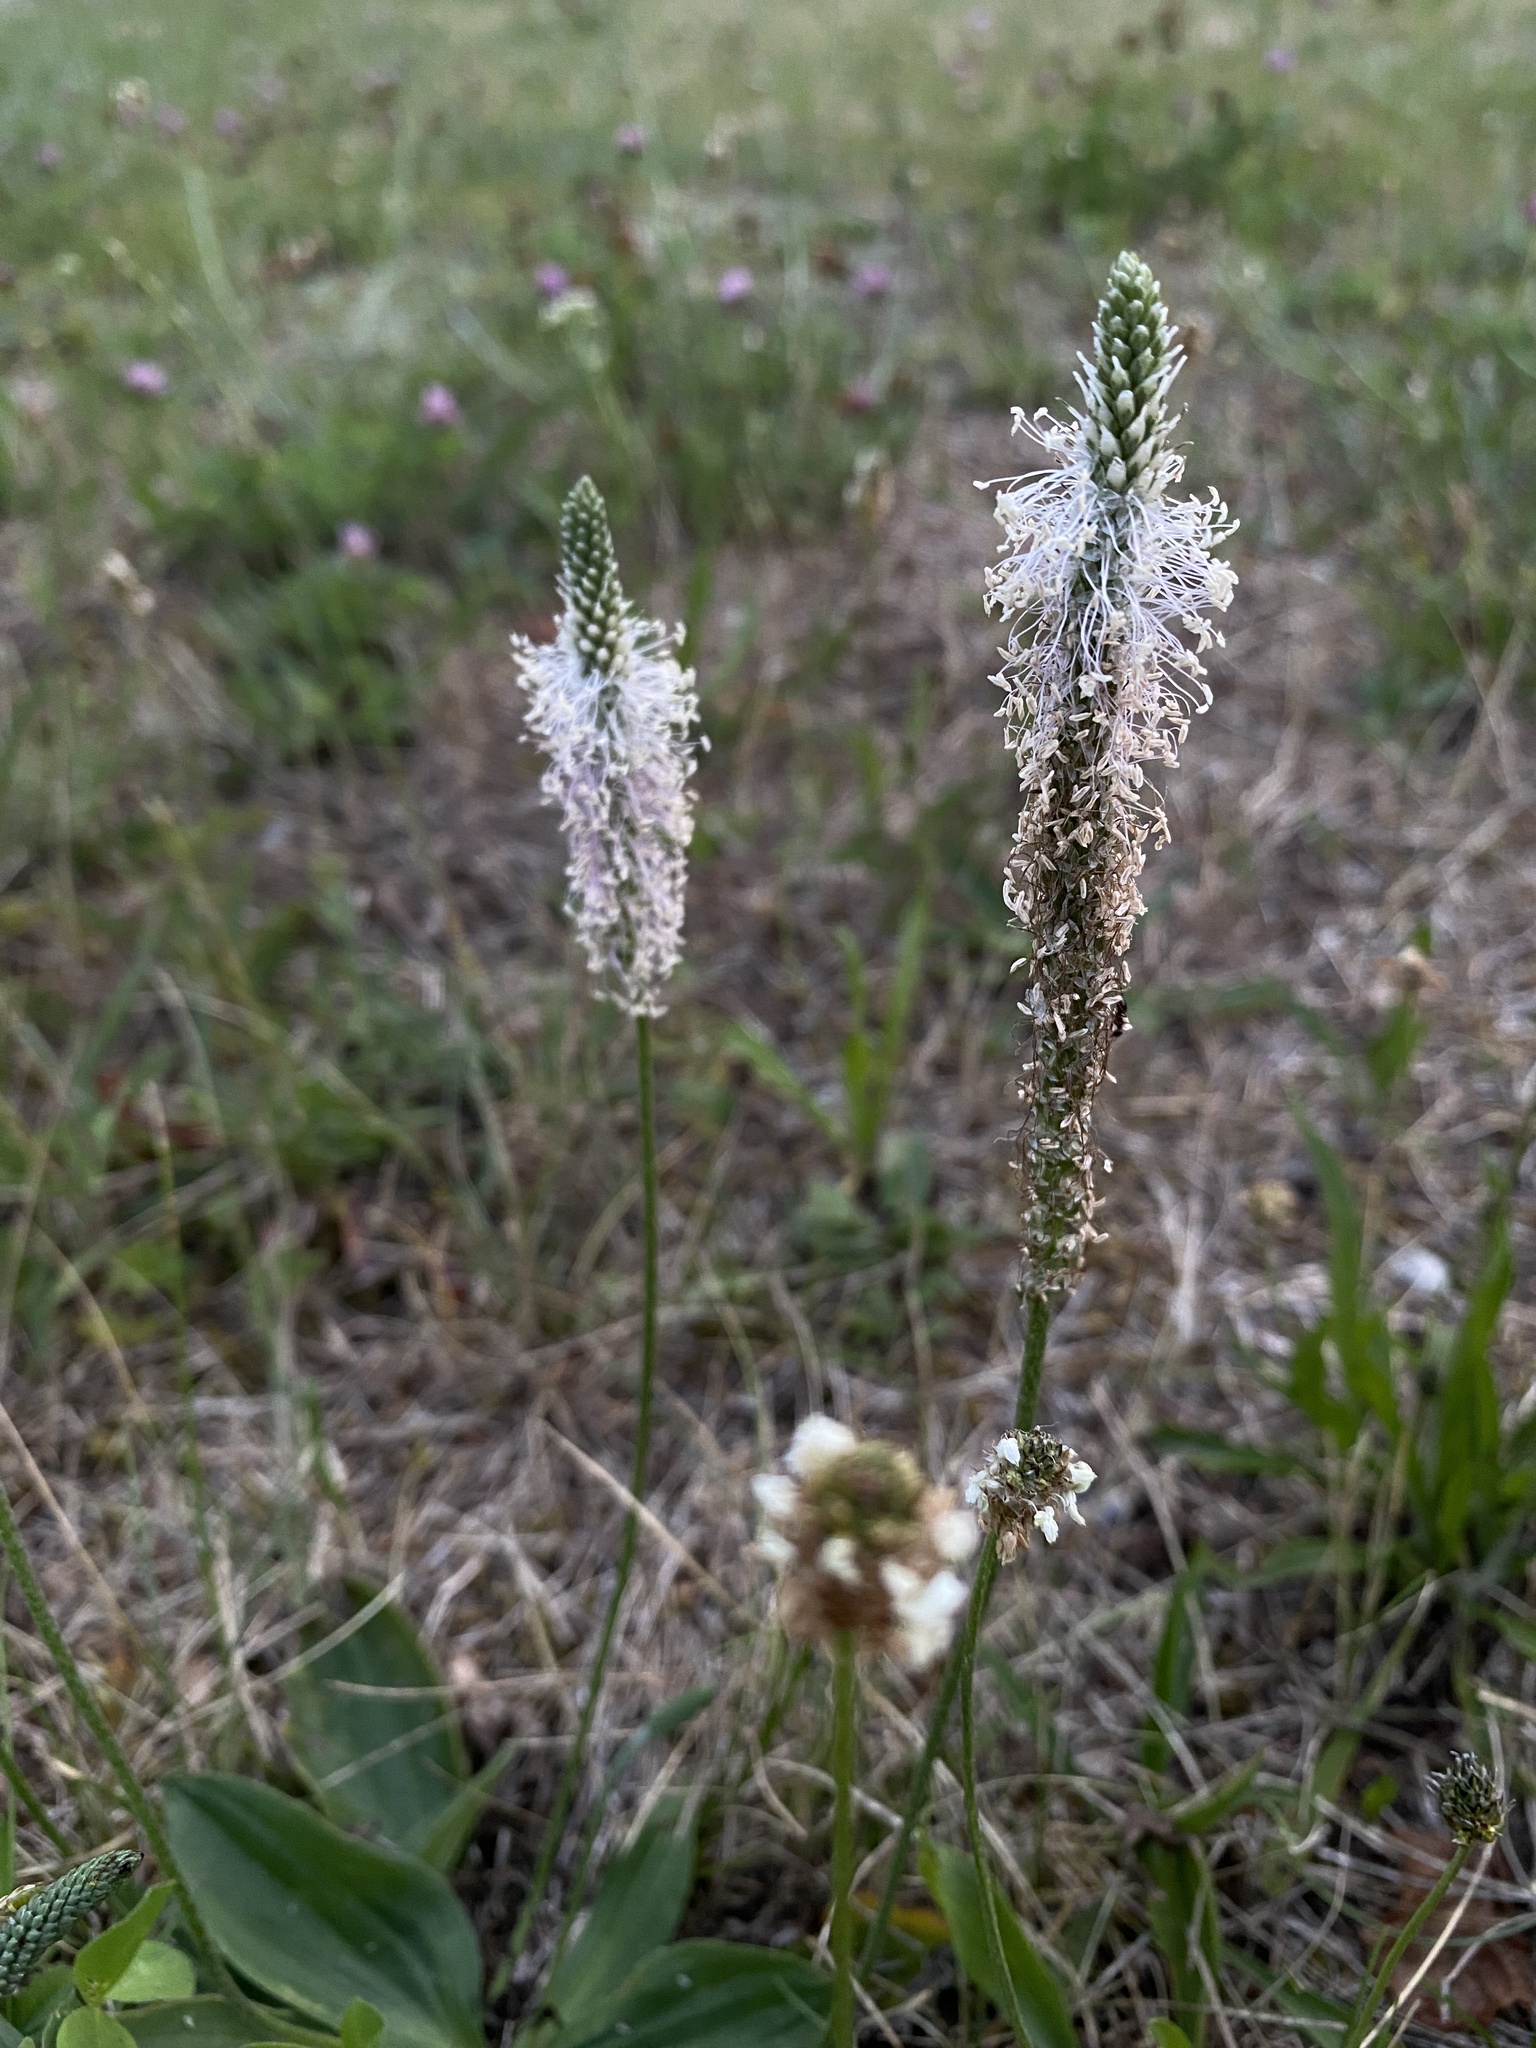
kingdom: Plantae
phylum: Tracheophyta
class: Magnoliopsida
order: Lamiales
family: Plantaginaceae
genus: Plantago
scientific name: Plantago media
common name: Hoary plantain
